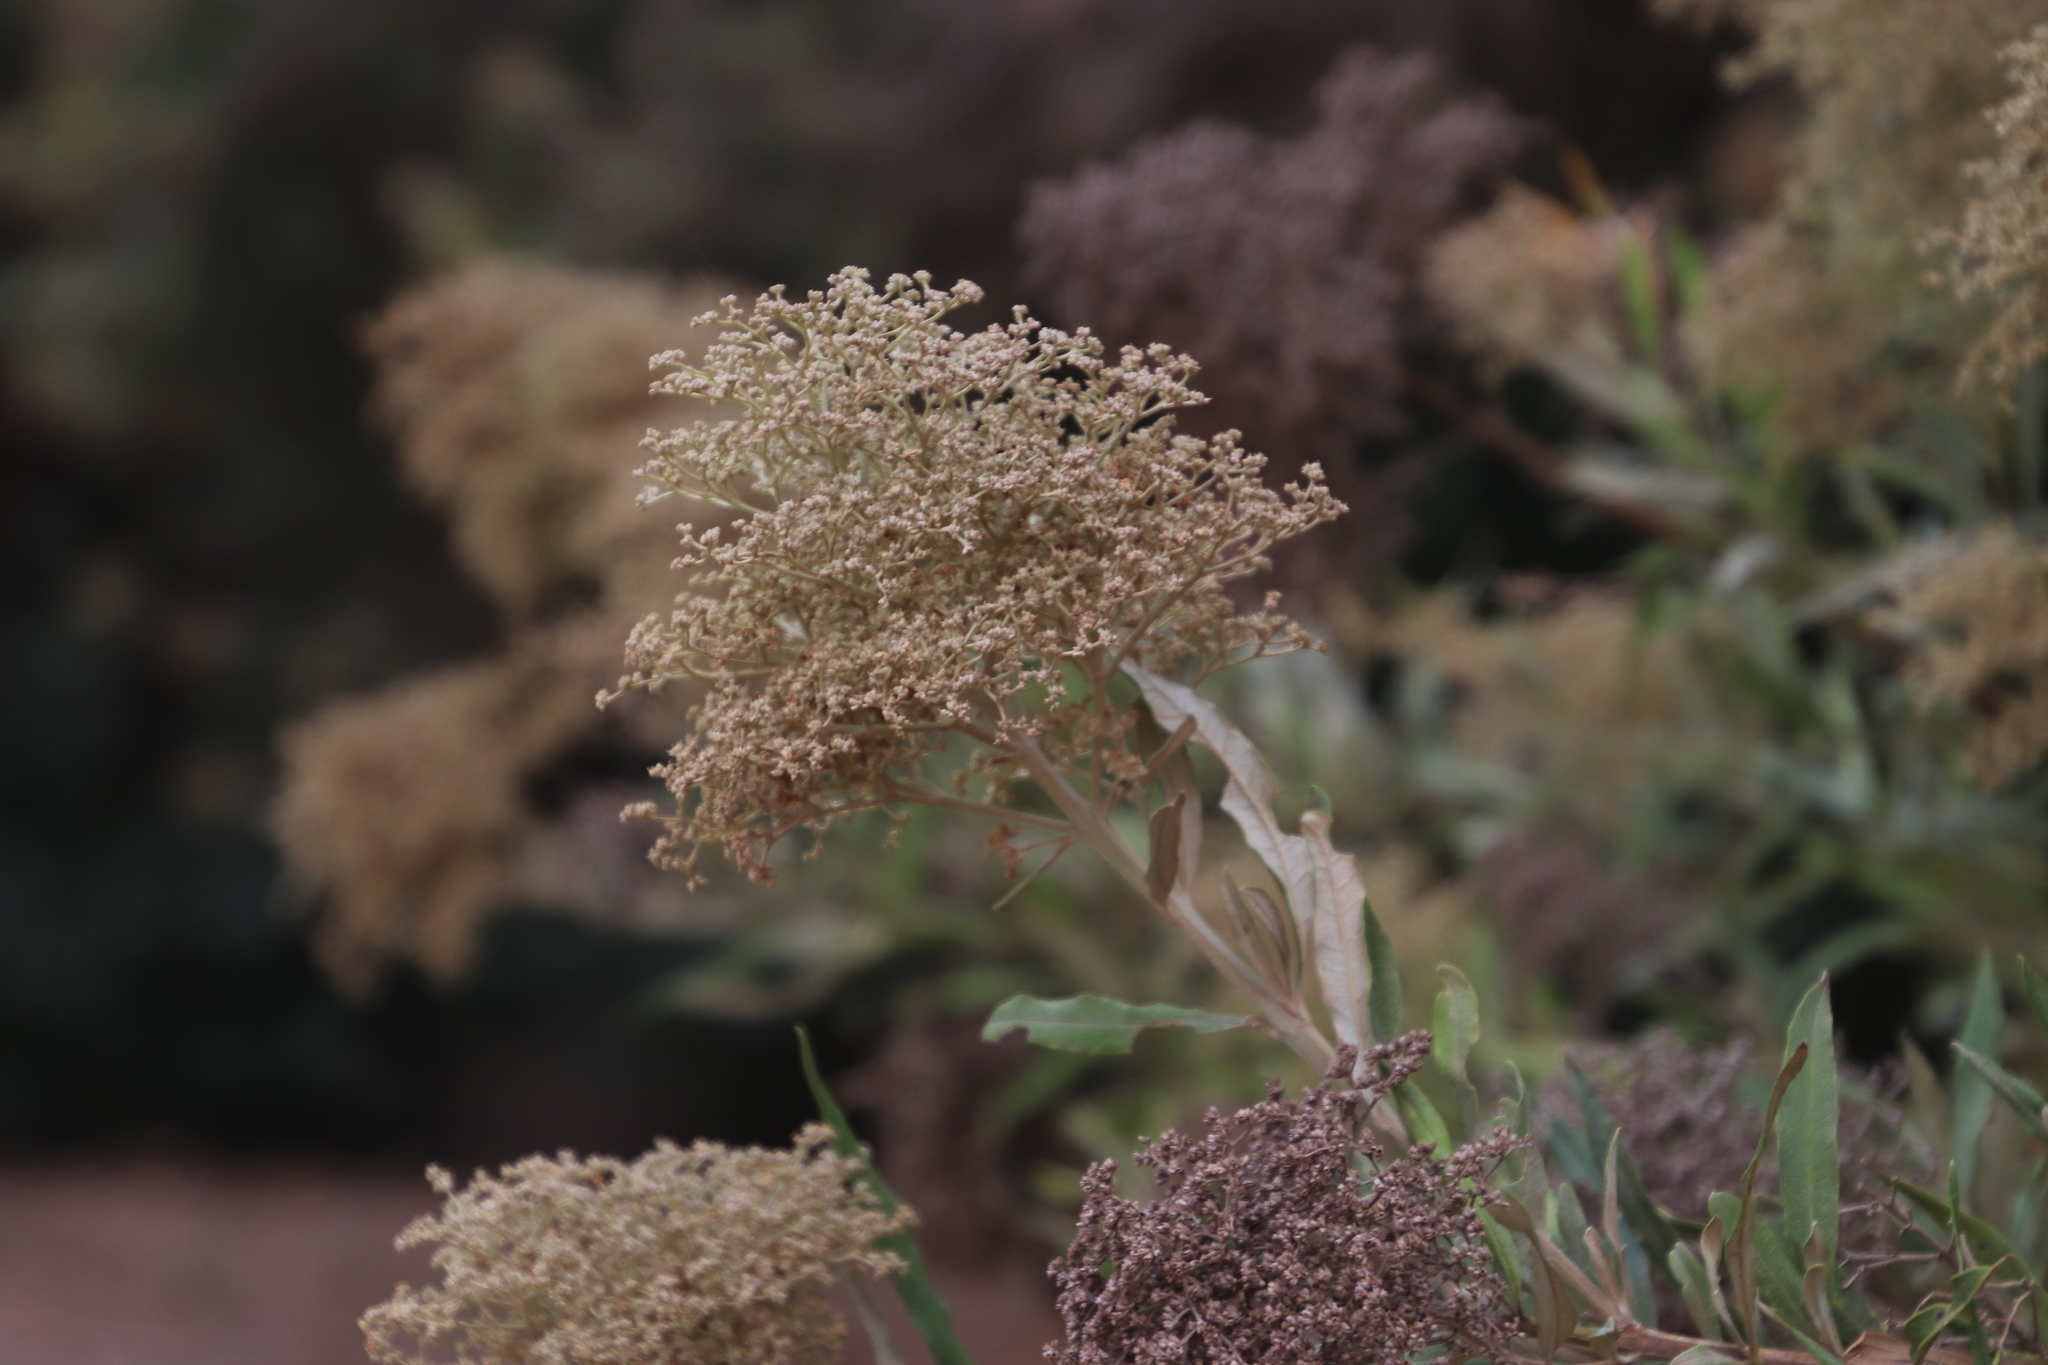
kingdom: Plantae
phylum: Tracheophyta
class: Magnoliopsida
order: Lamiales
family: Scrophulariaceae
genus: Buddleja
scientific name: Buddleja saligna
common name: False olive
